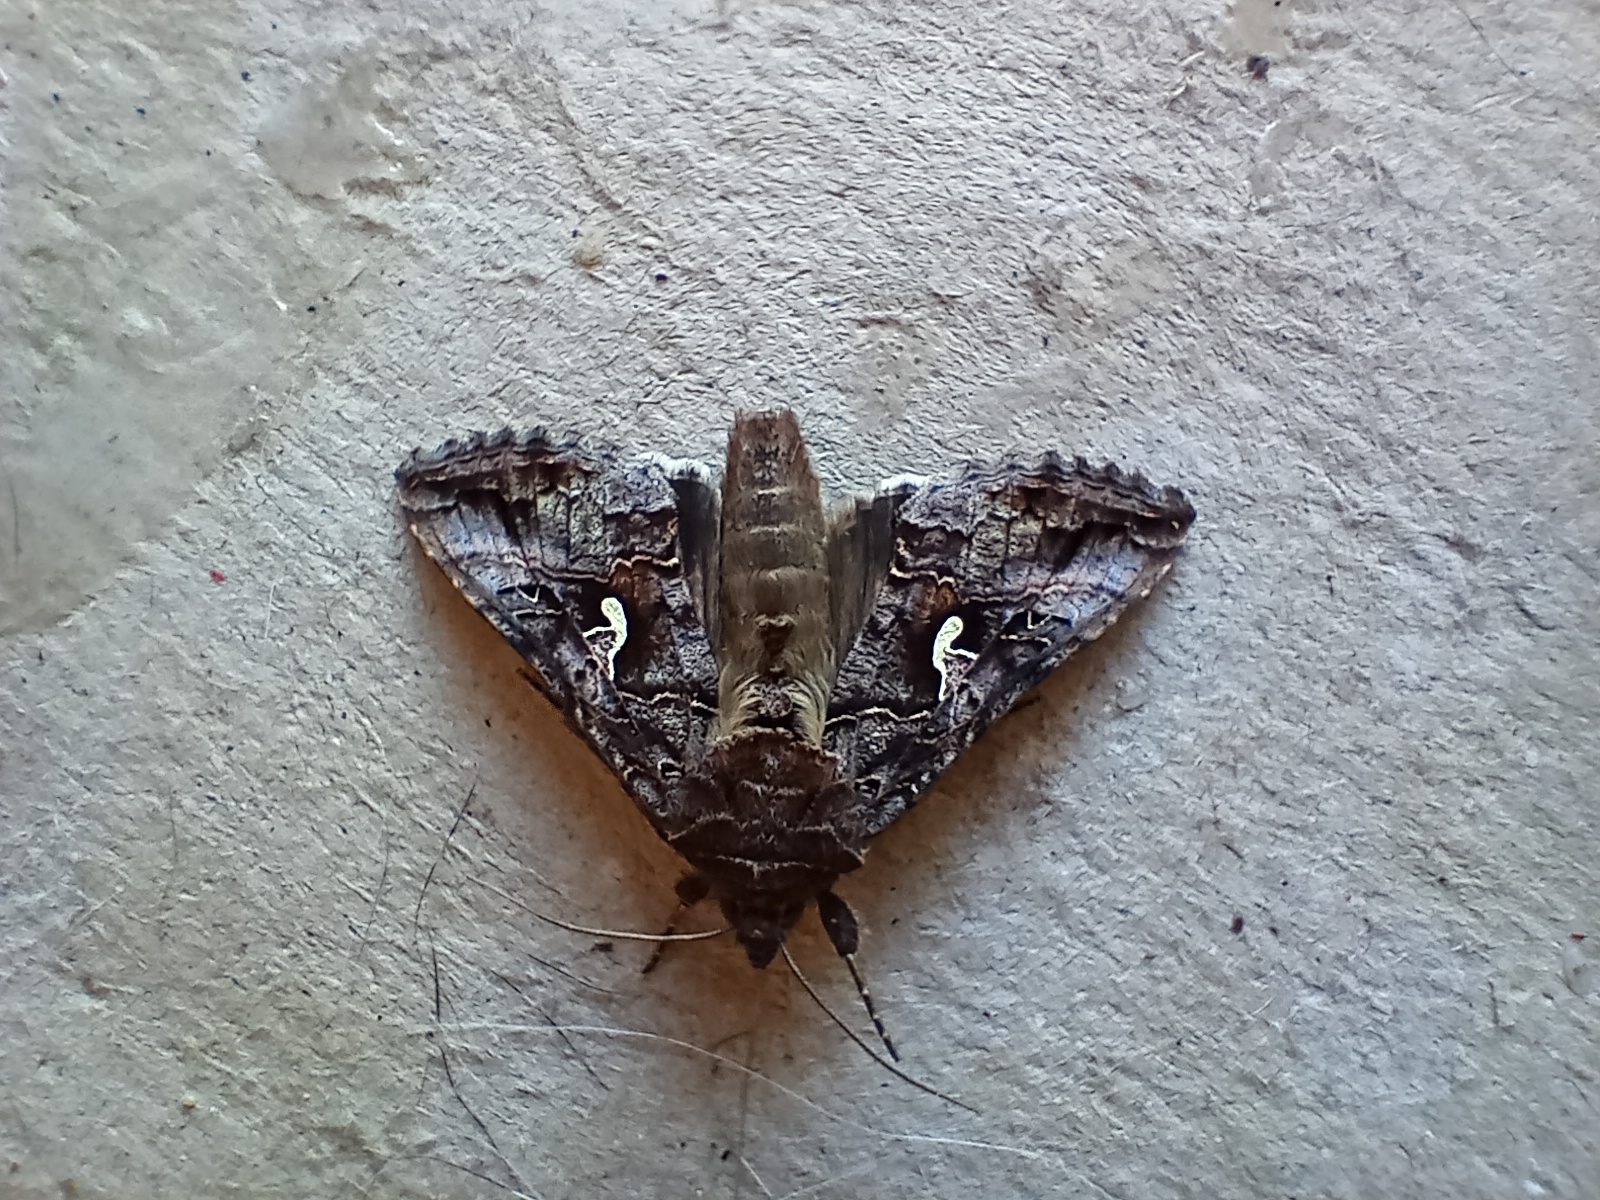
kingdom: Animalia
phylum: Arthropoda
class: Insecta
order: Lepidoptera
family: Noctuidae
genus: Autographa
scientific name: Autographa gamma
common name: Silver y
